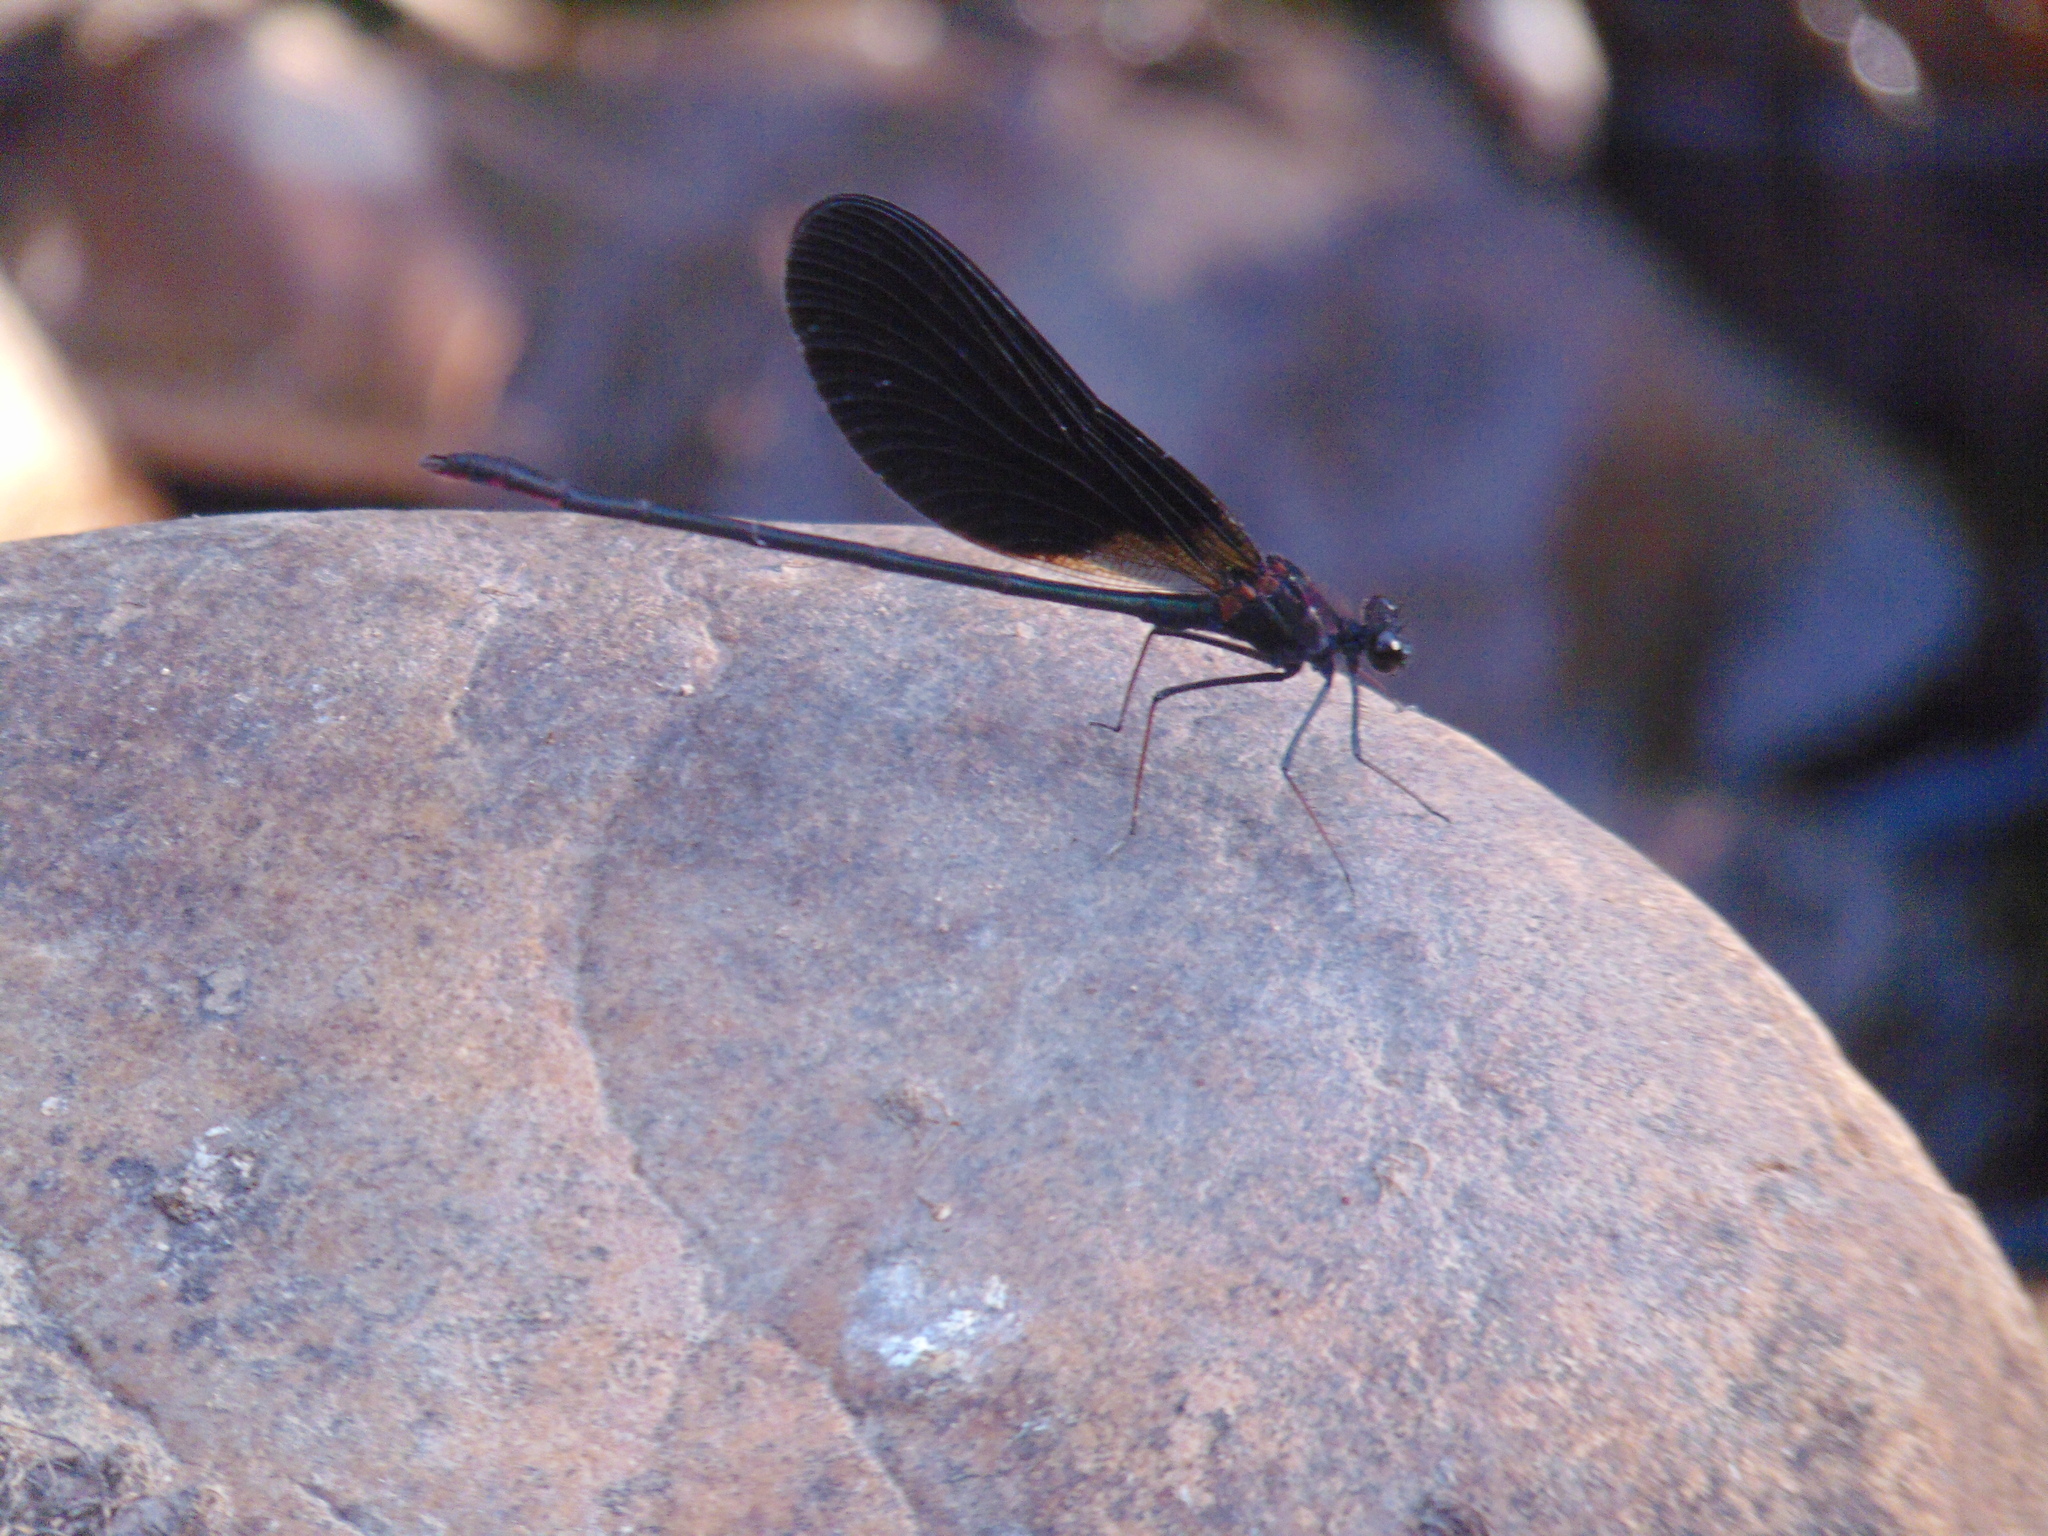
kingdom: Animalia
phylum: Arthropoda
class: Insecta
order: Odonata
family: Calopterygidae
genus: Calopteryx
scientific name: Calopteryx haemorrhoidalis
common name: Copper demoiselle
